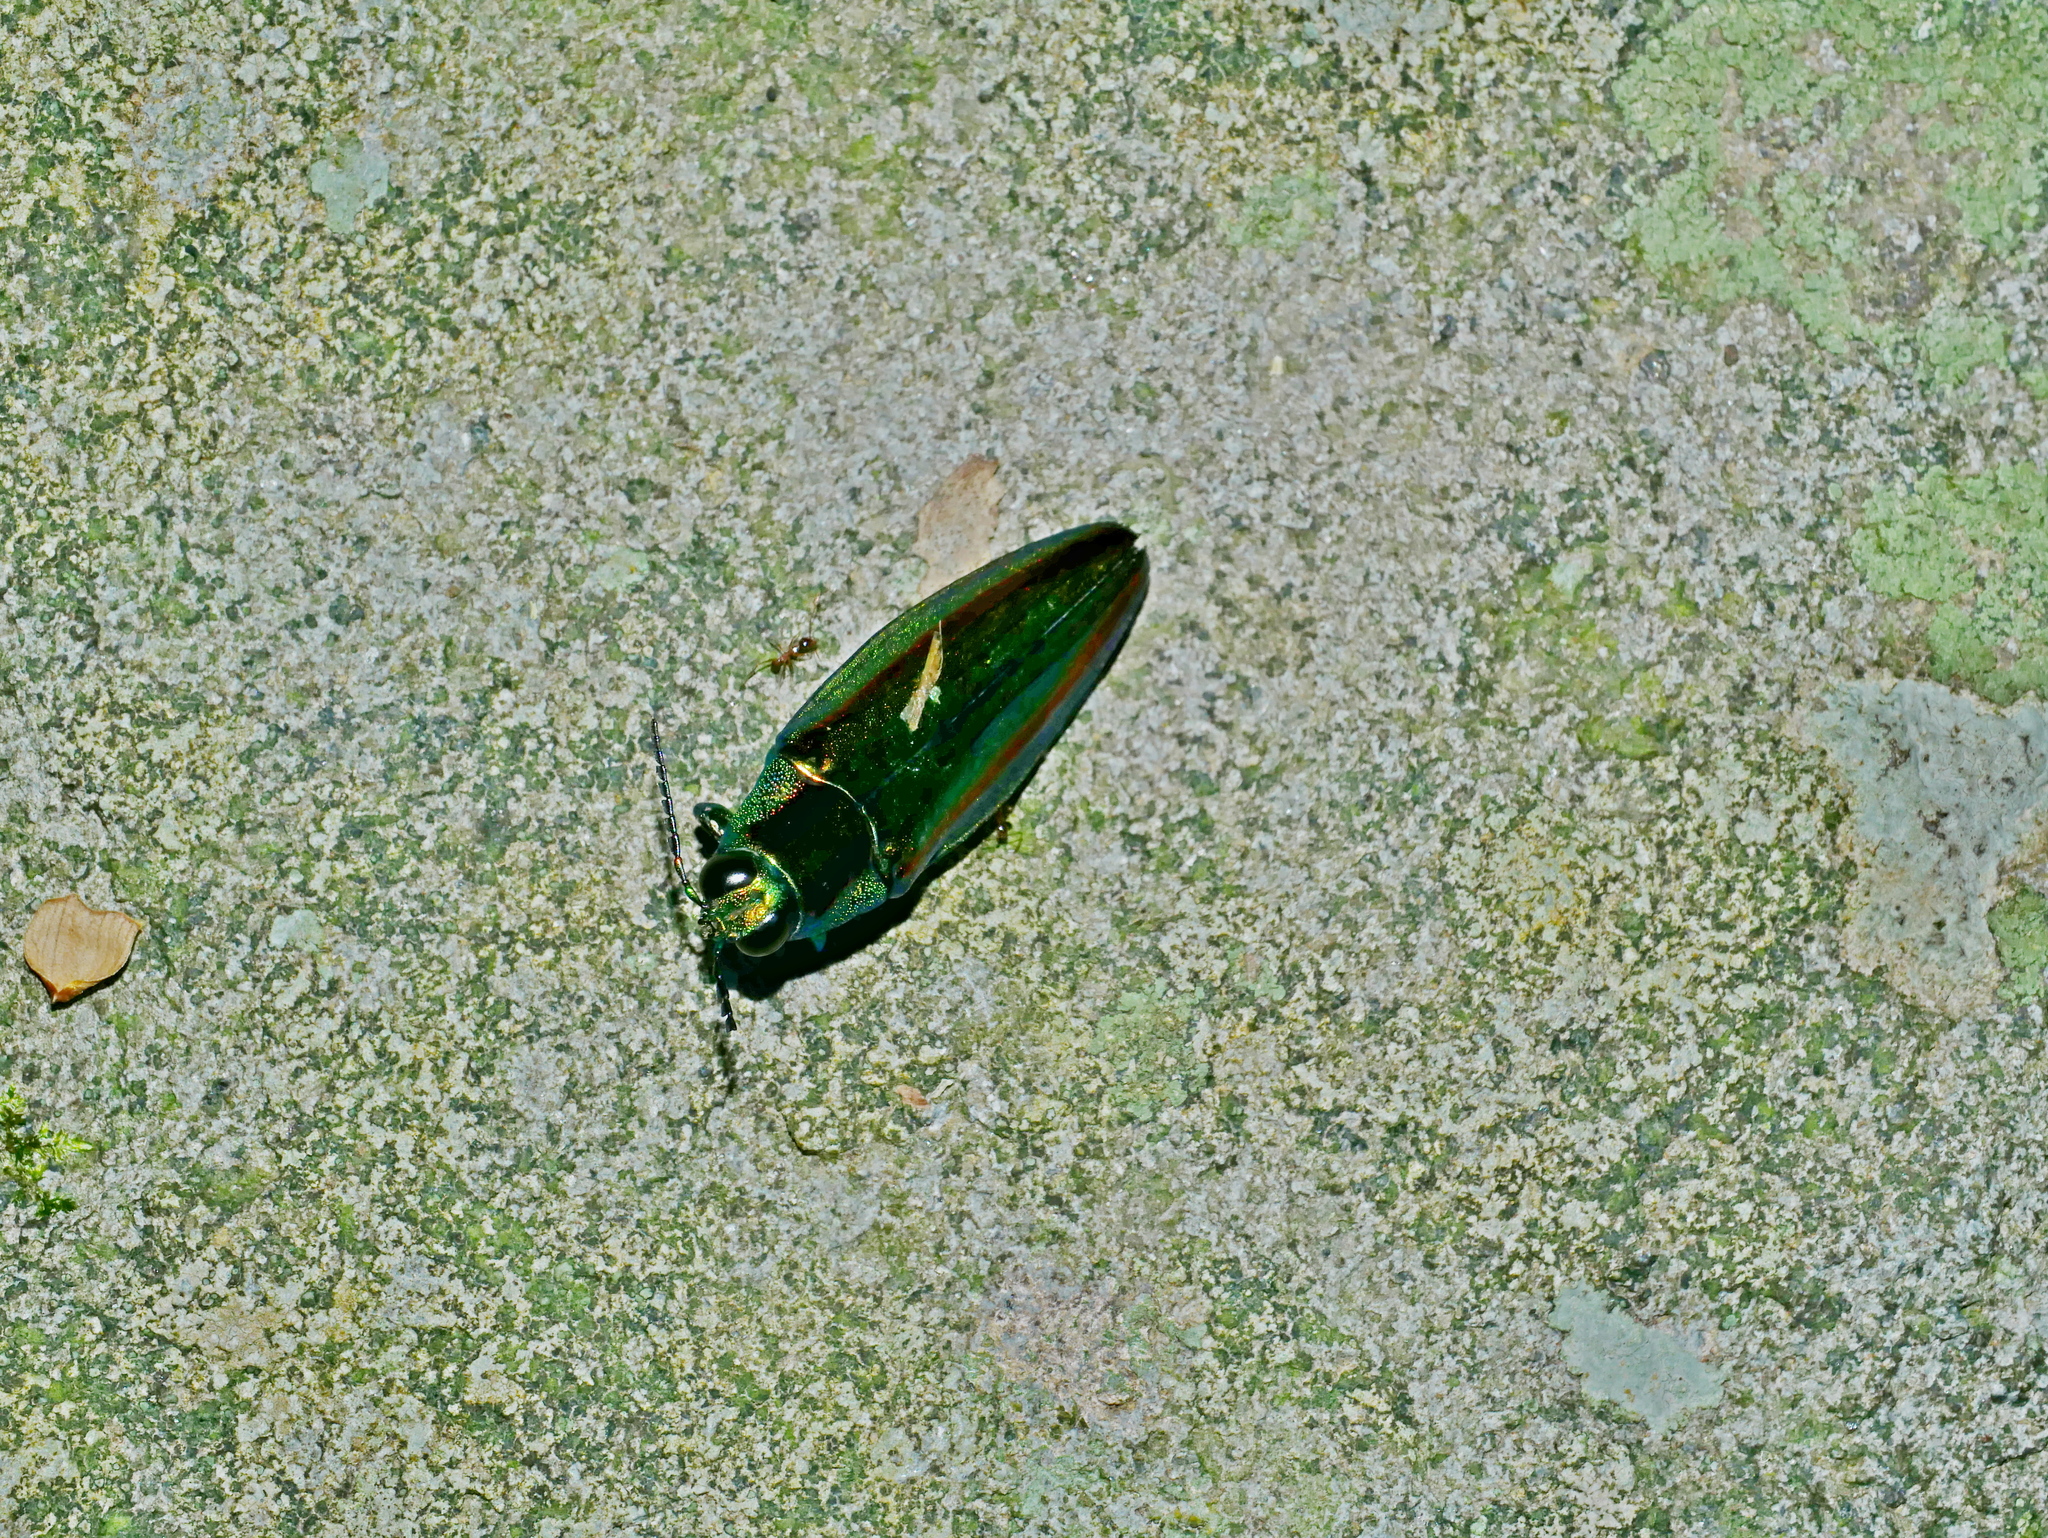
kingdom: Animalia
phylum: Arthropoda
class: Insecta
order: Coleoptera
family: Buprestidae
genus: Chrysochroa
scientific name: Chrysochroa fulgidissima
